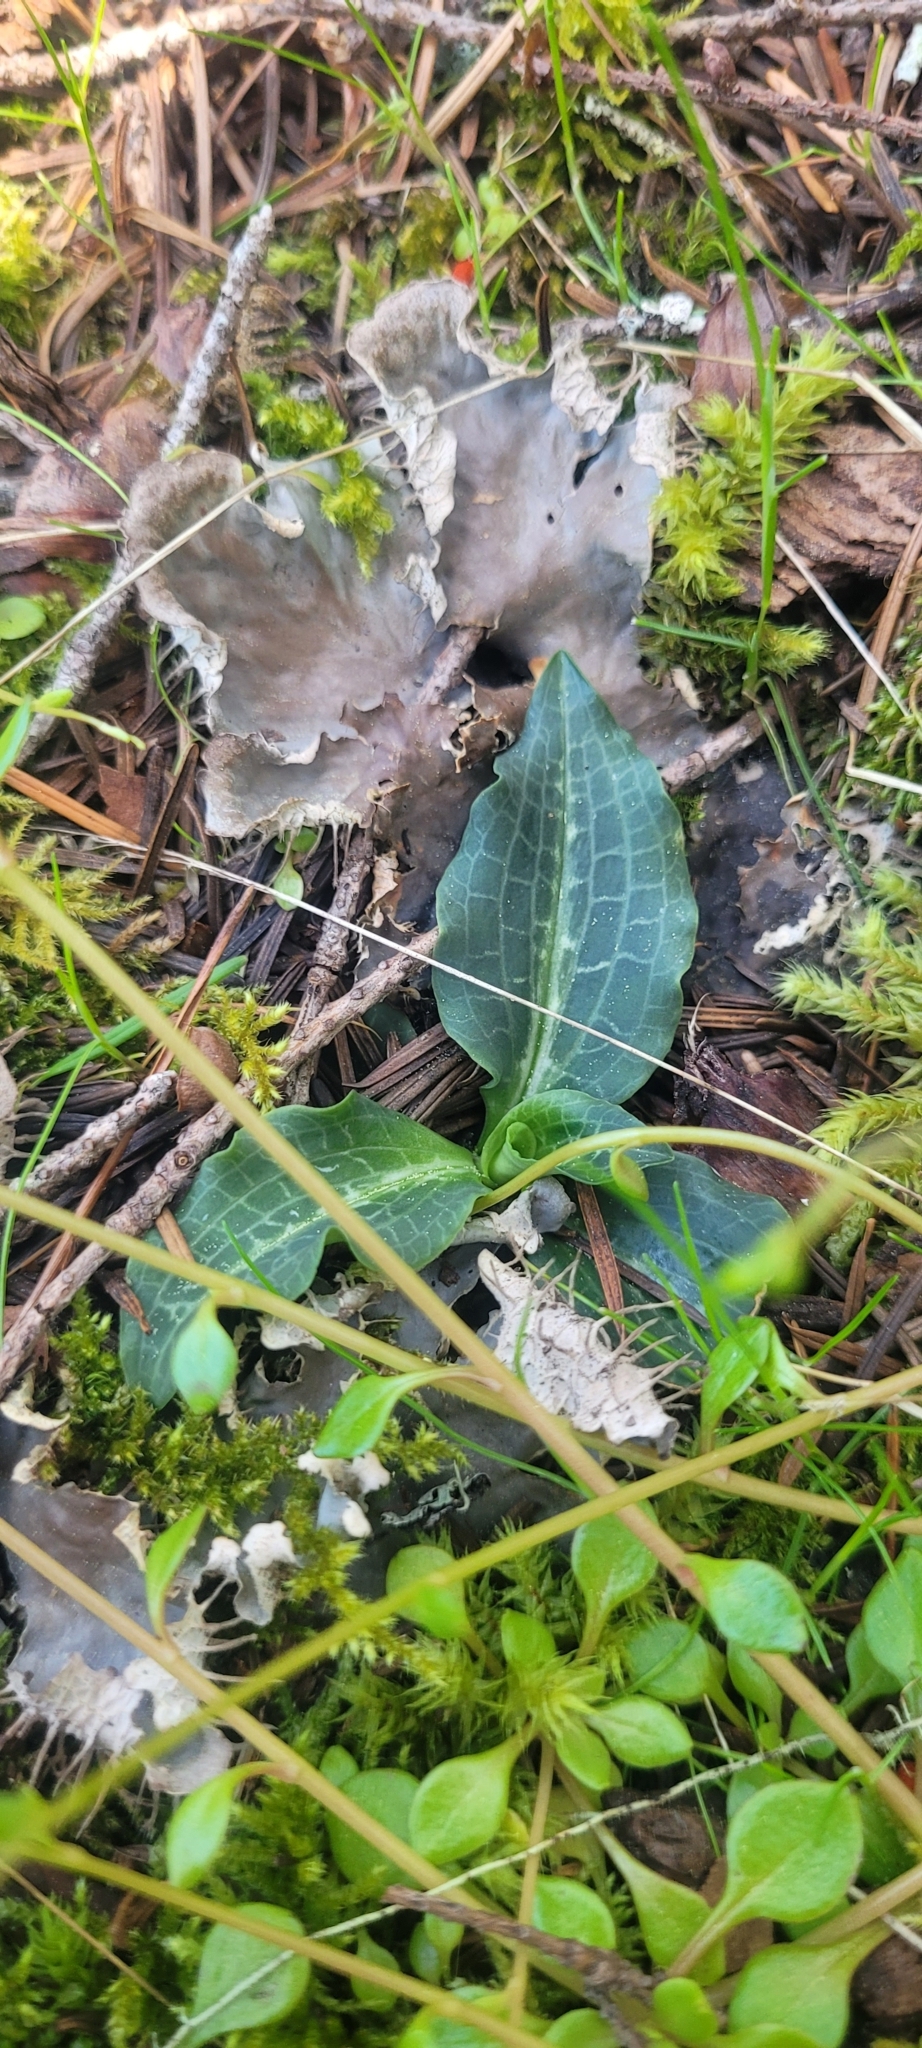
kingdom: Plantae
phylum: Tracheophyta
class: Liliopsida
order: Asparagales
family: Orchidaceae
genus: Goodyera
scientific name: Goodyera oblongifolia
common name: Giant rattlesnake-plantain
